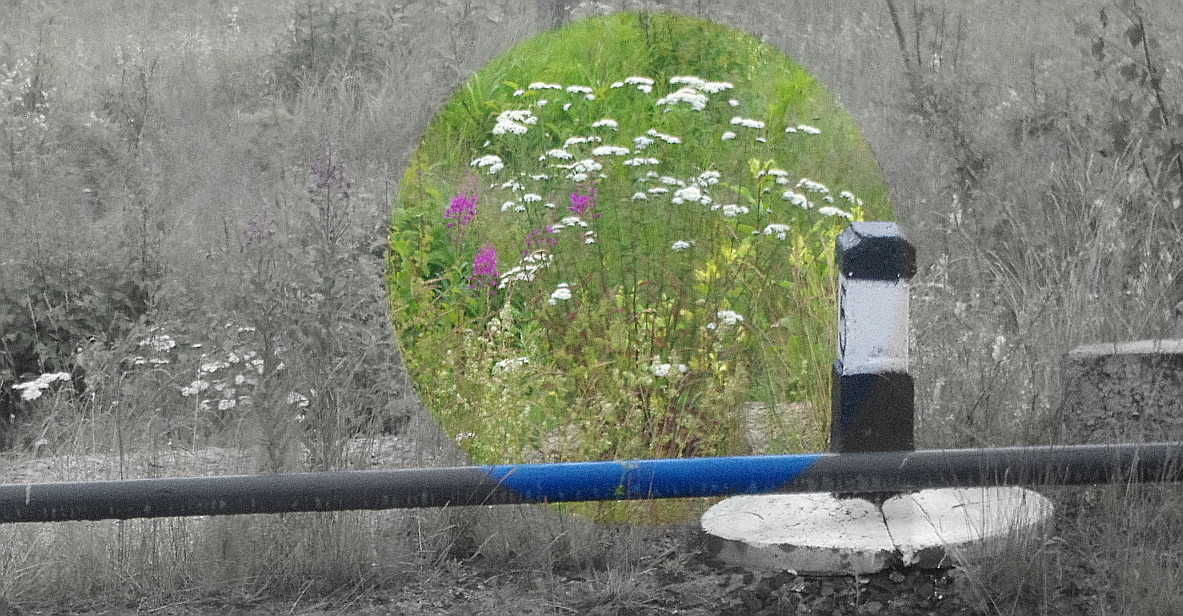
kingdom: Plantae
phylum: Tracheophyta
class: Magnoliopsida
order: Asterales
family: Asteraceae
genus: Achillea
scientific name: Achillea millefolium
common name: Yarrow
